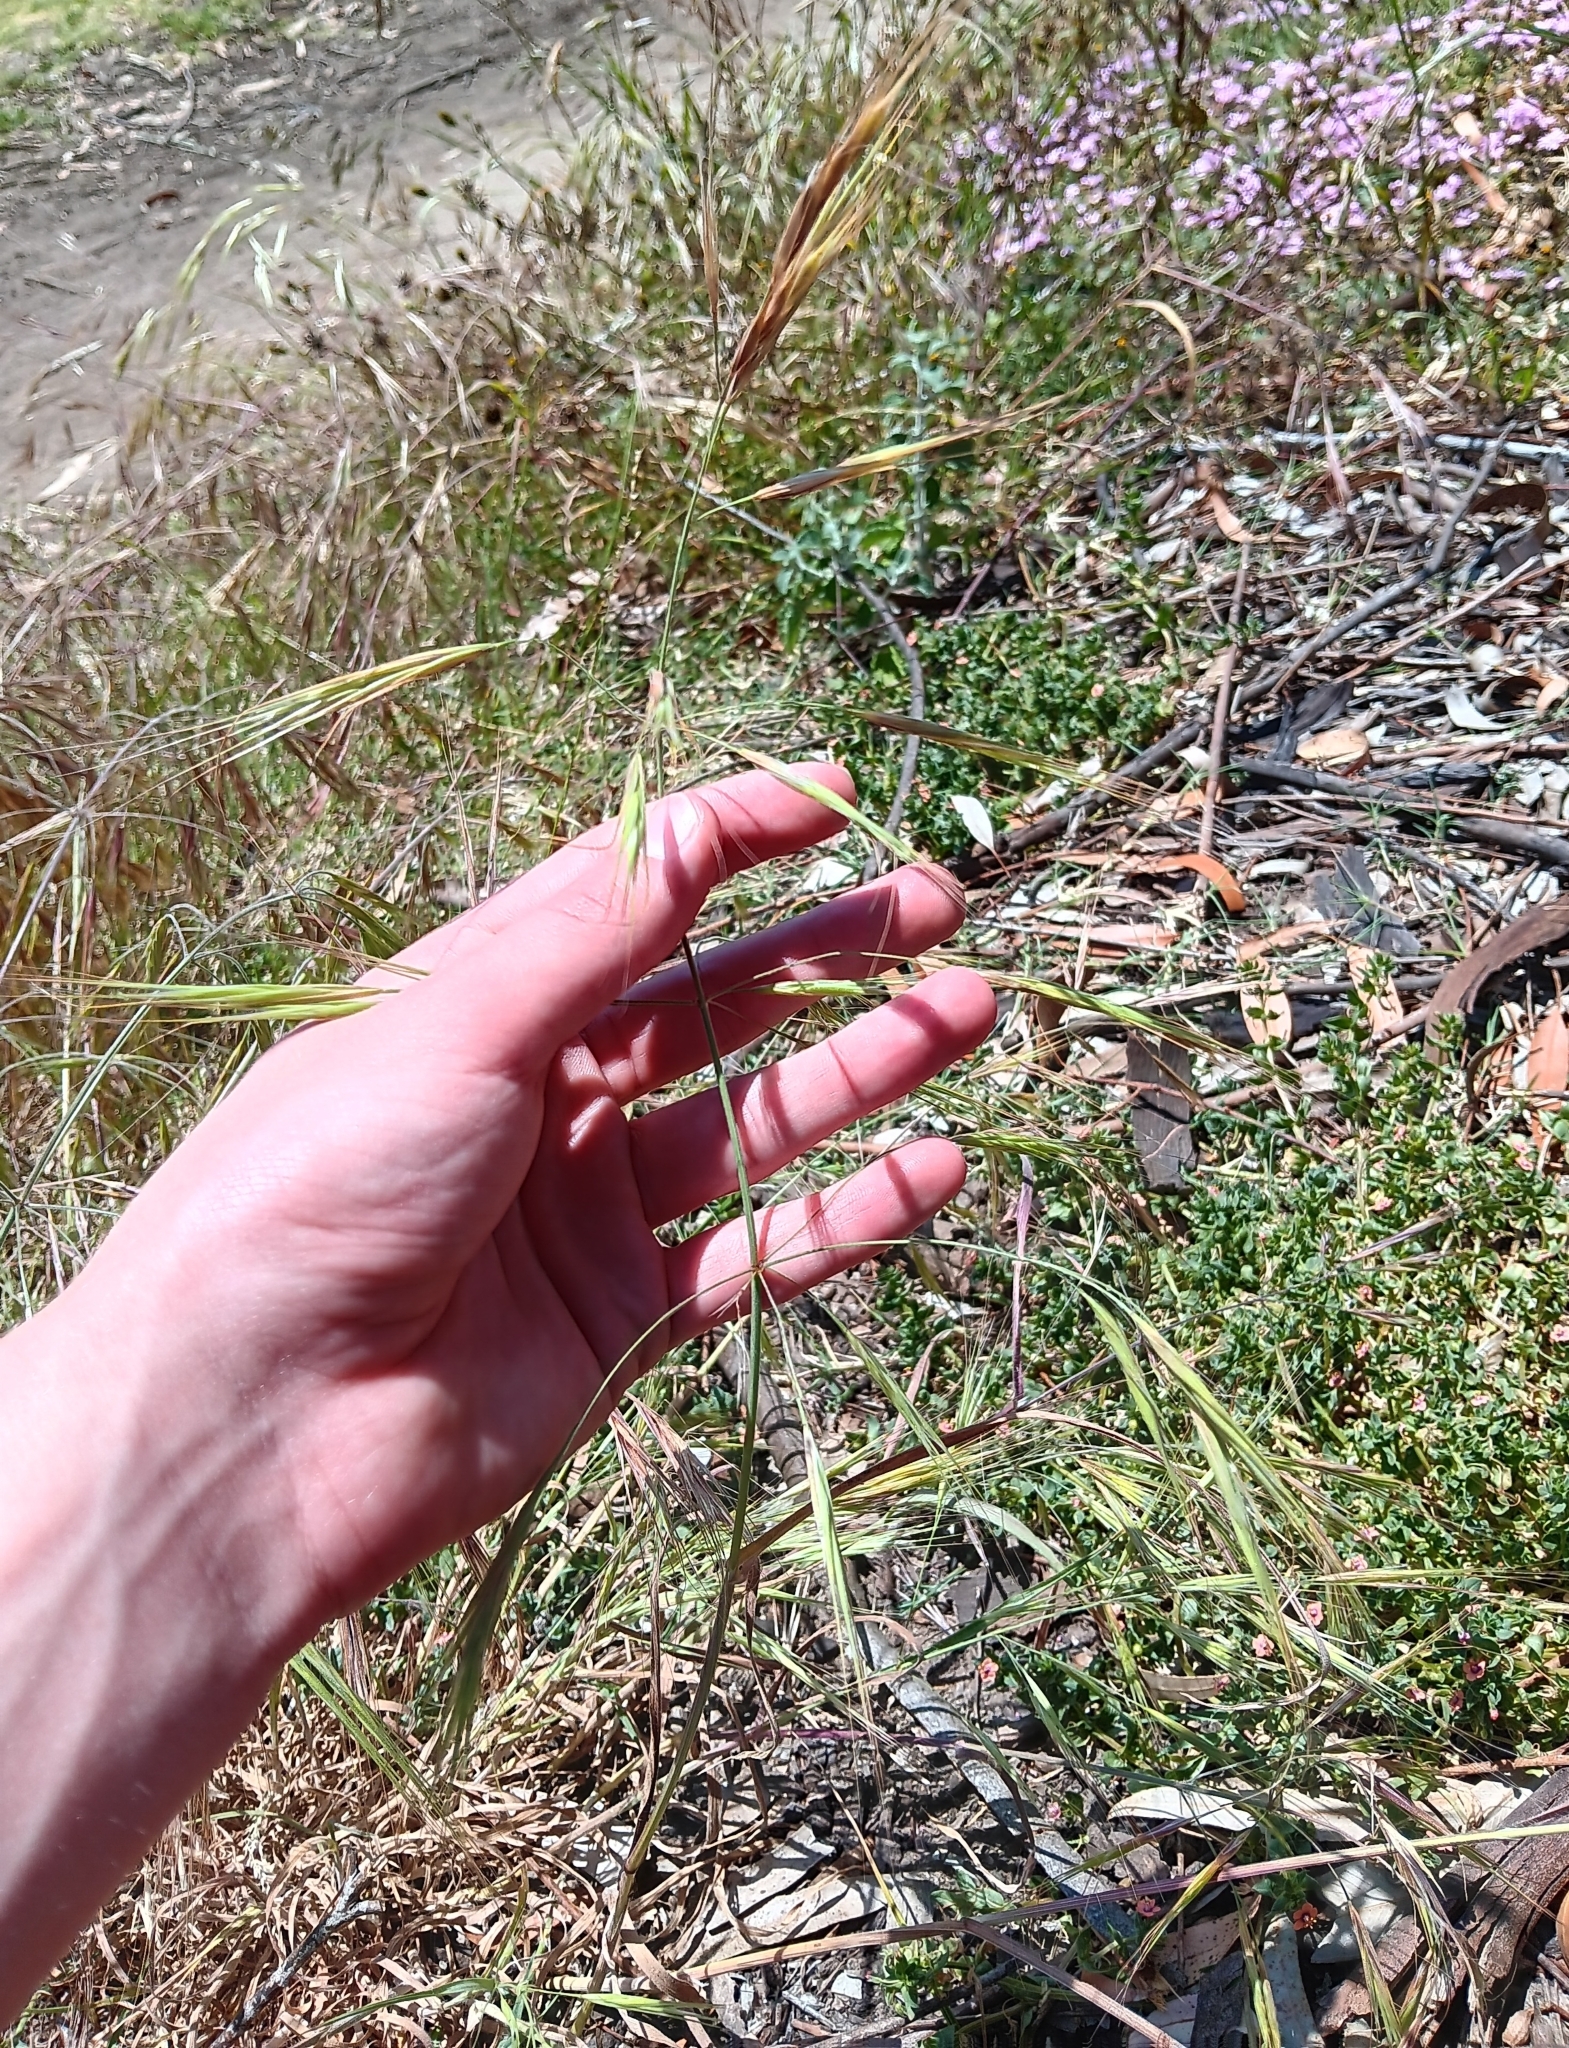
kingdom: Plantae
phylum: Tracheophyta
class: Liliopsida
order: Poales
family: Poaceae
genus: Bromus
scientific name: Bromus diandrus
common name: Ripgut brome
